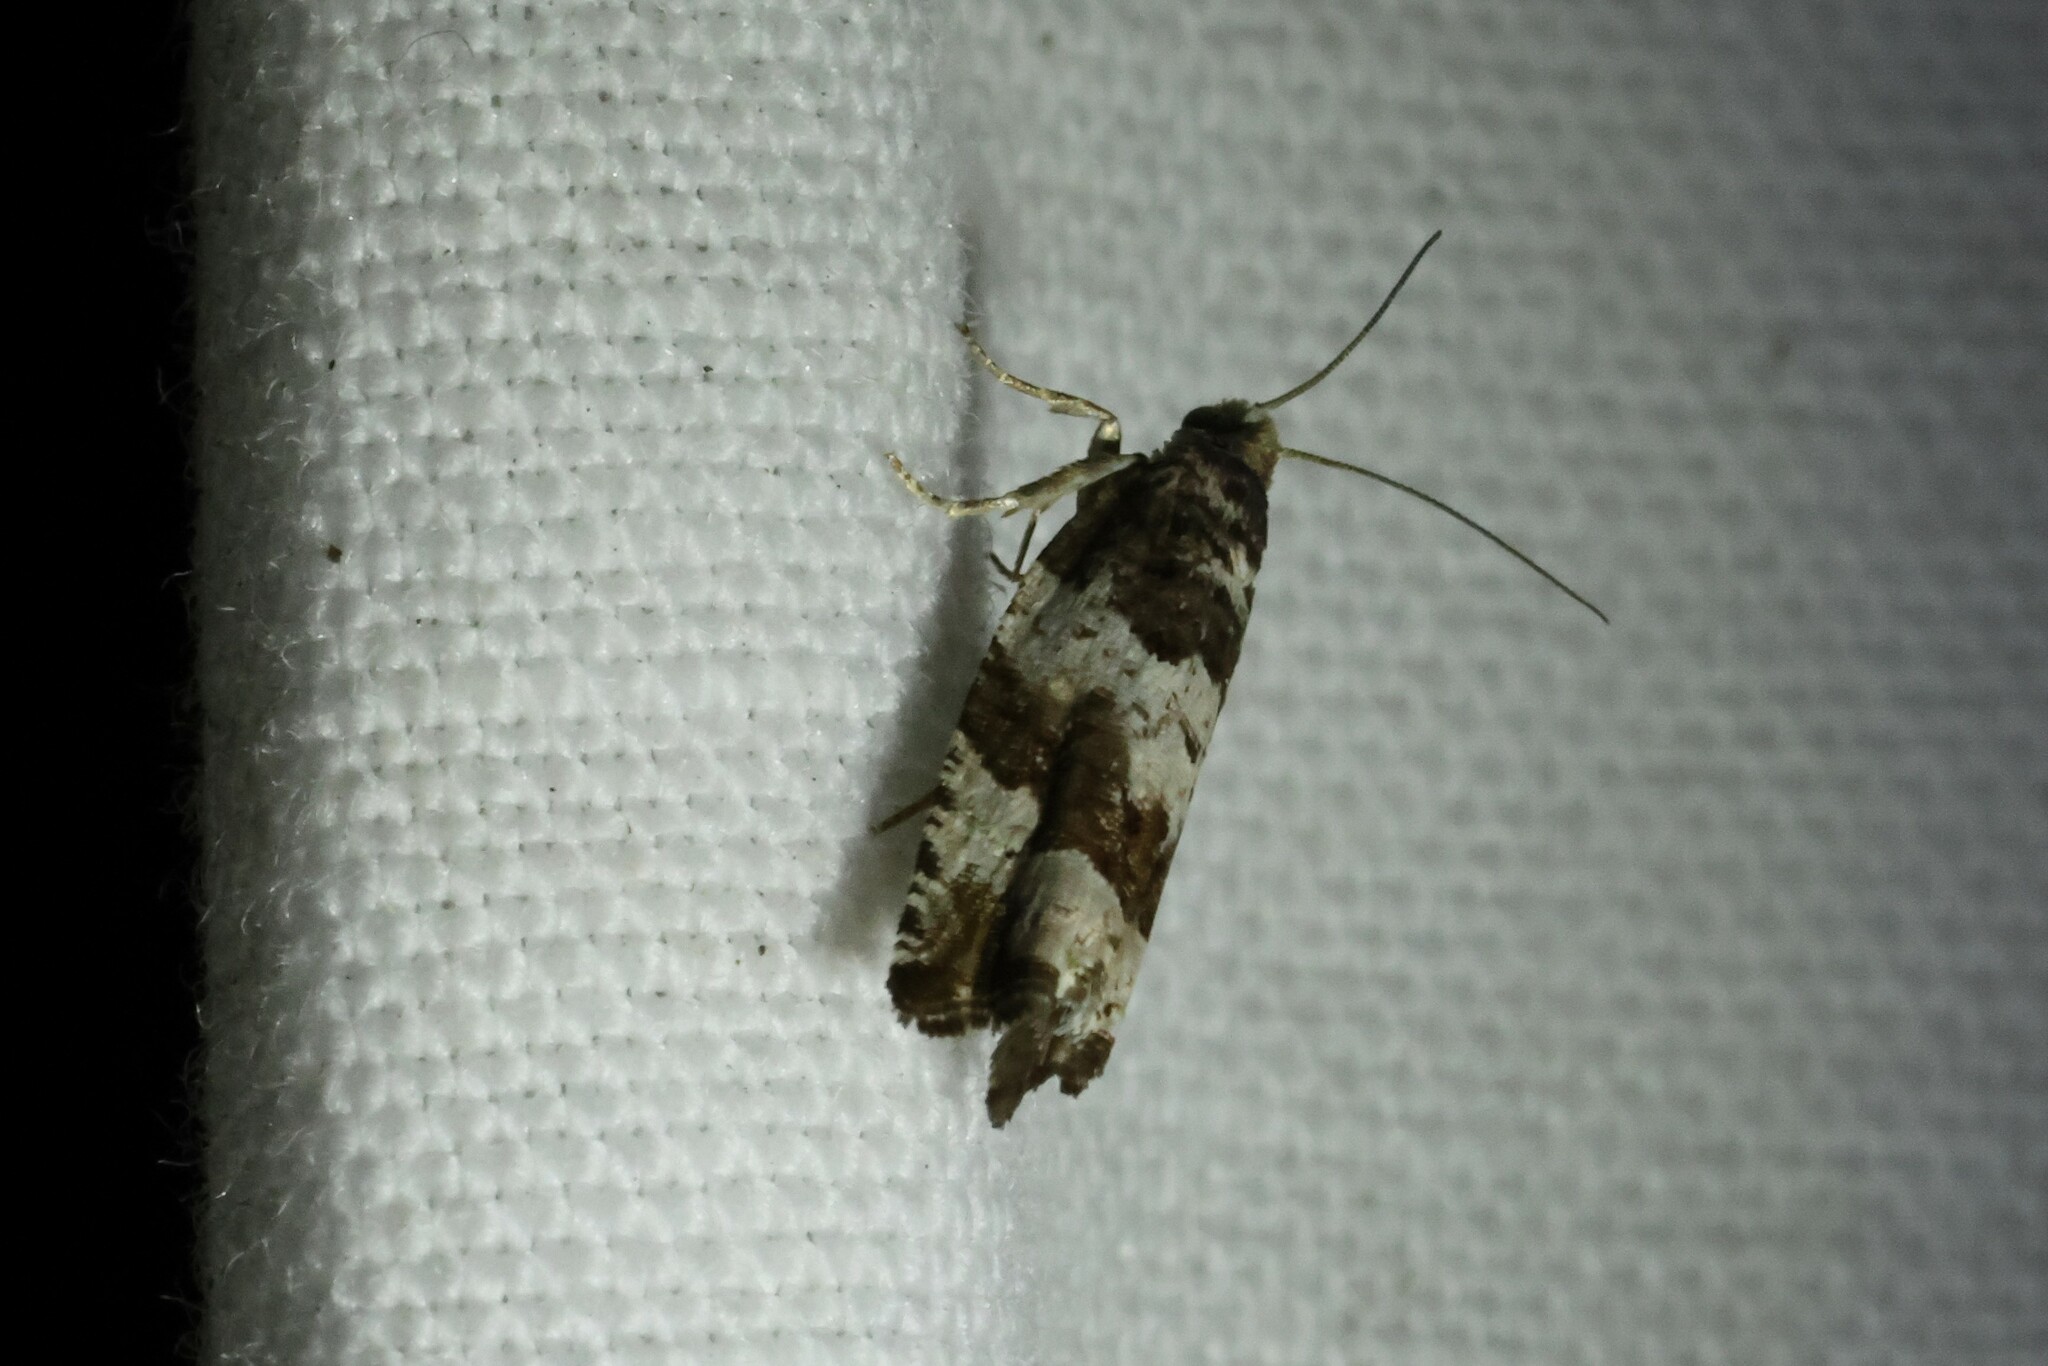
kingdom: Animalia
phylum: Arthropoda
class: Insecta
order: Lepidoptera
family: Tortricidae
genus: Celypha
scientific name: Celypha cespitana
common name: Thyme marble
